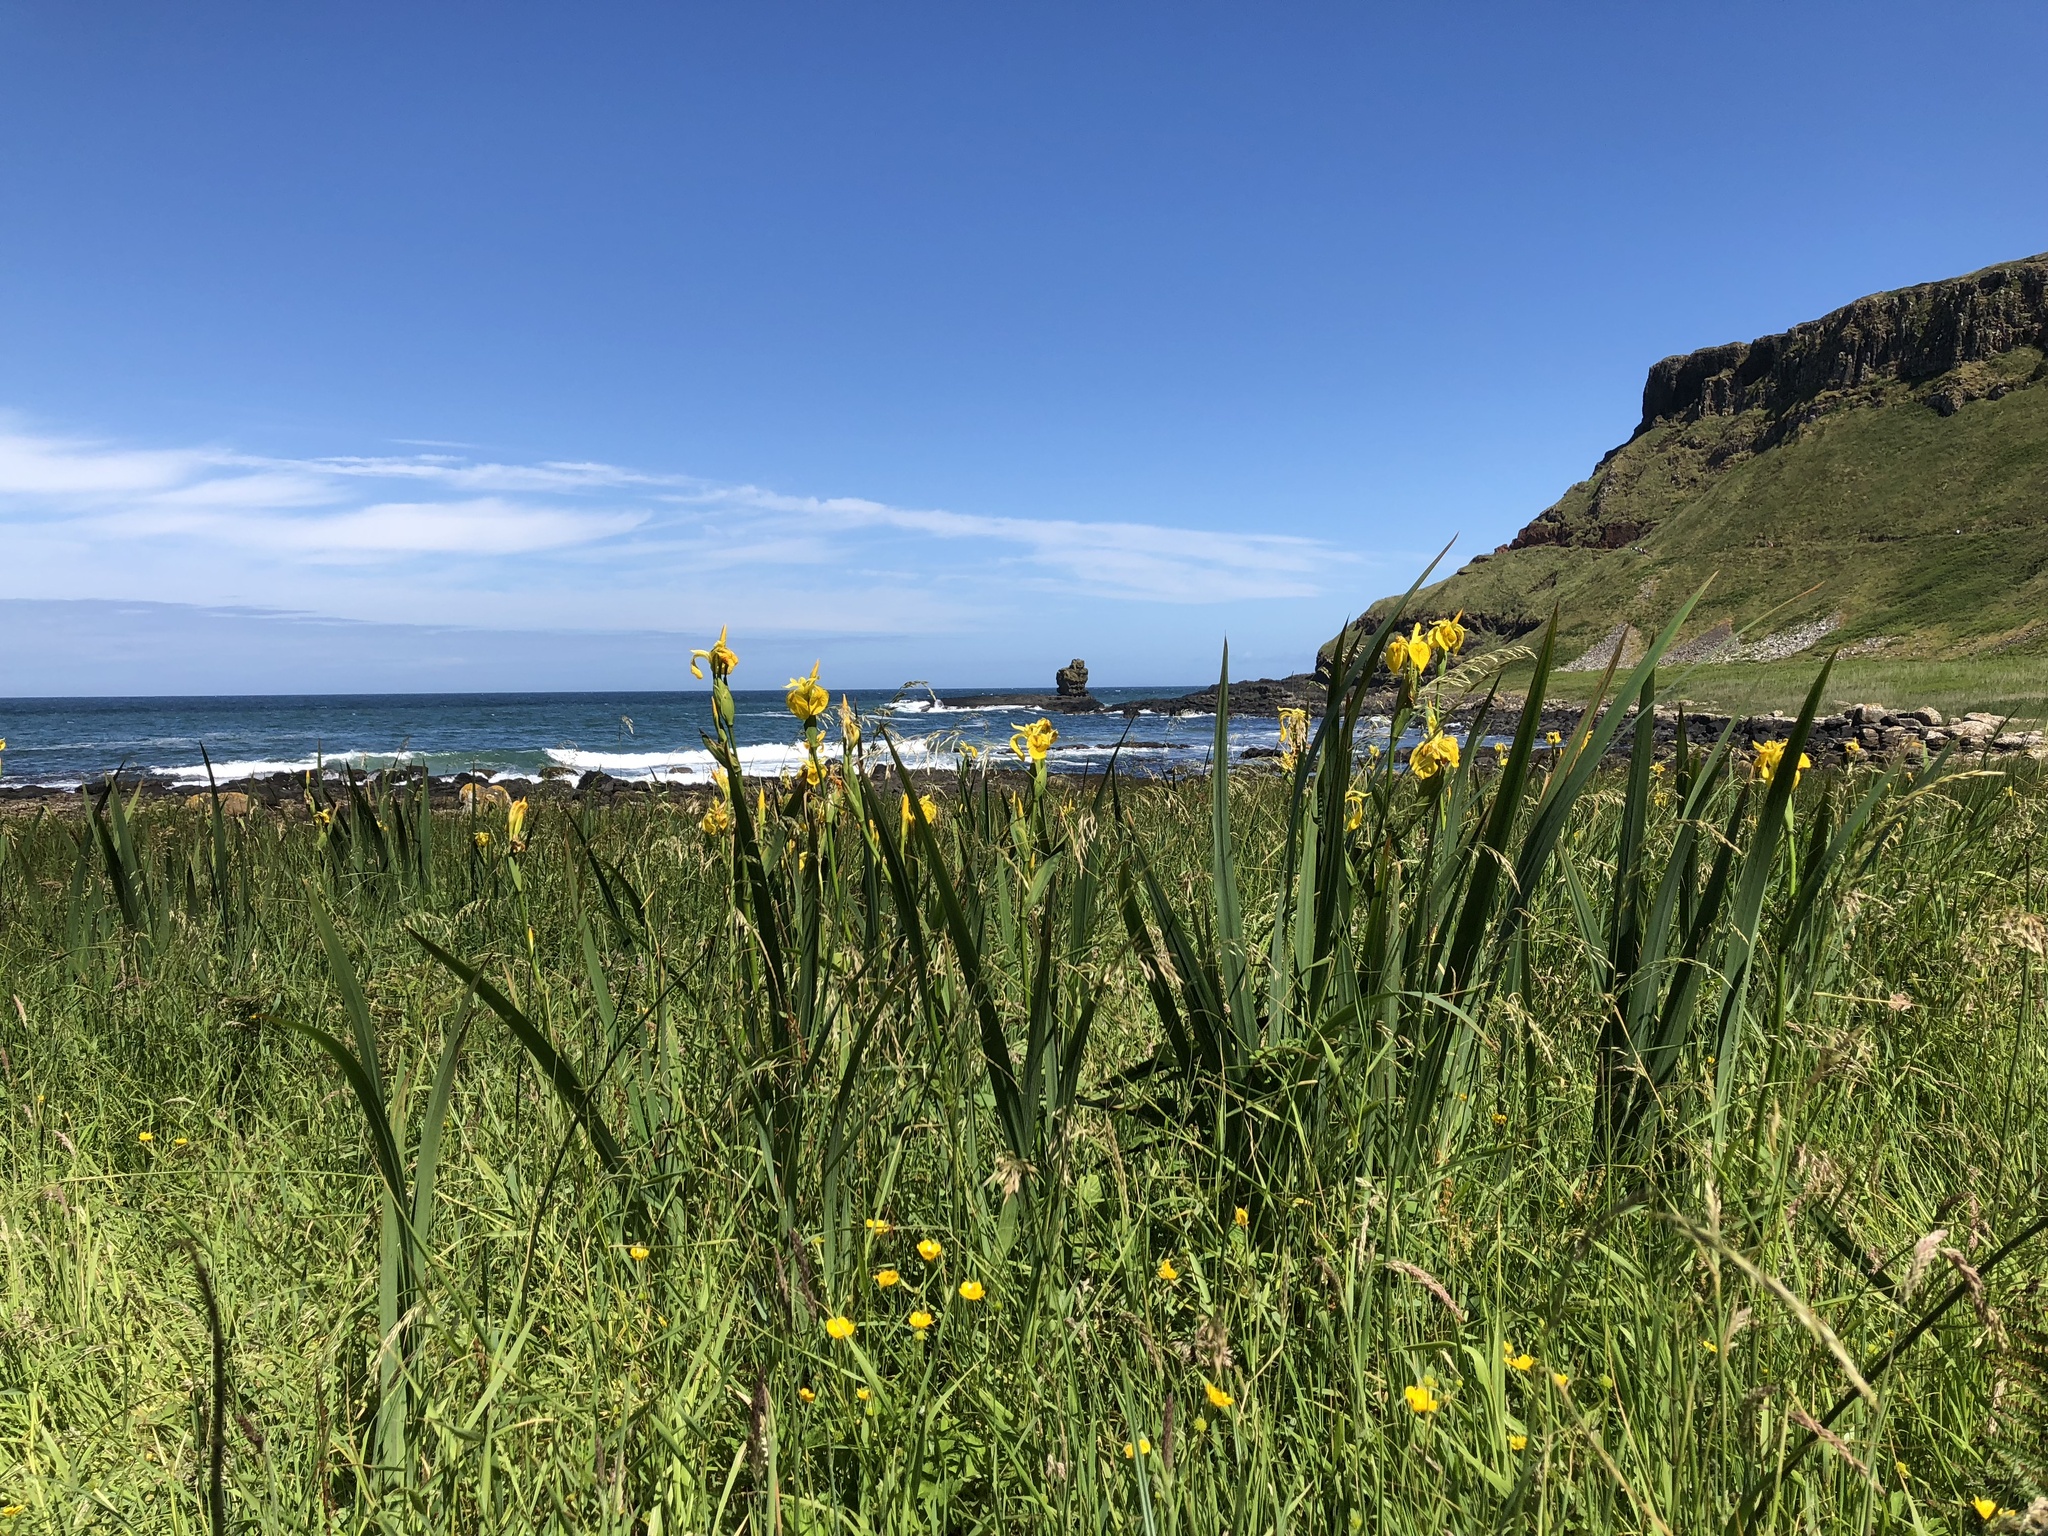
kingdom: Plantae
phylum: Tracheophyta
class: Liliopsida
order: Asparagales
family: Iridaceae
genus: Iris
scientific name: Iris pseudacorus
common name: Yellow flag
